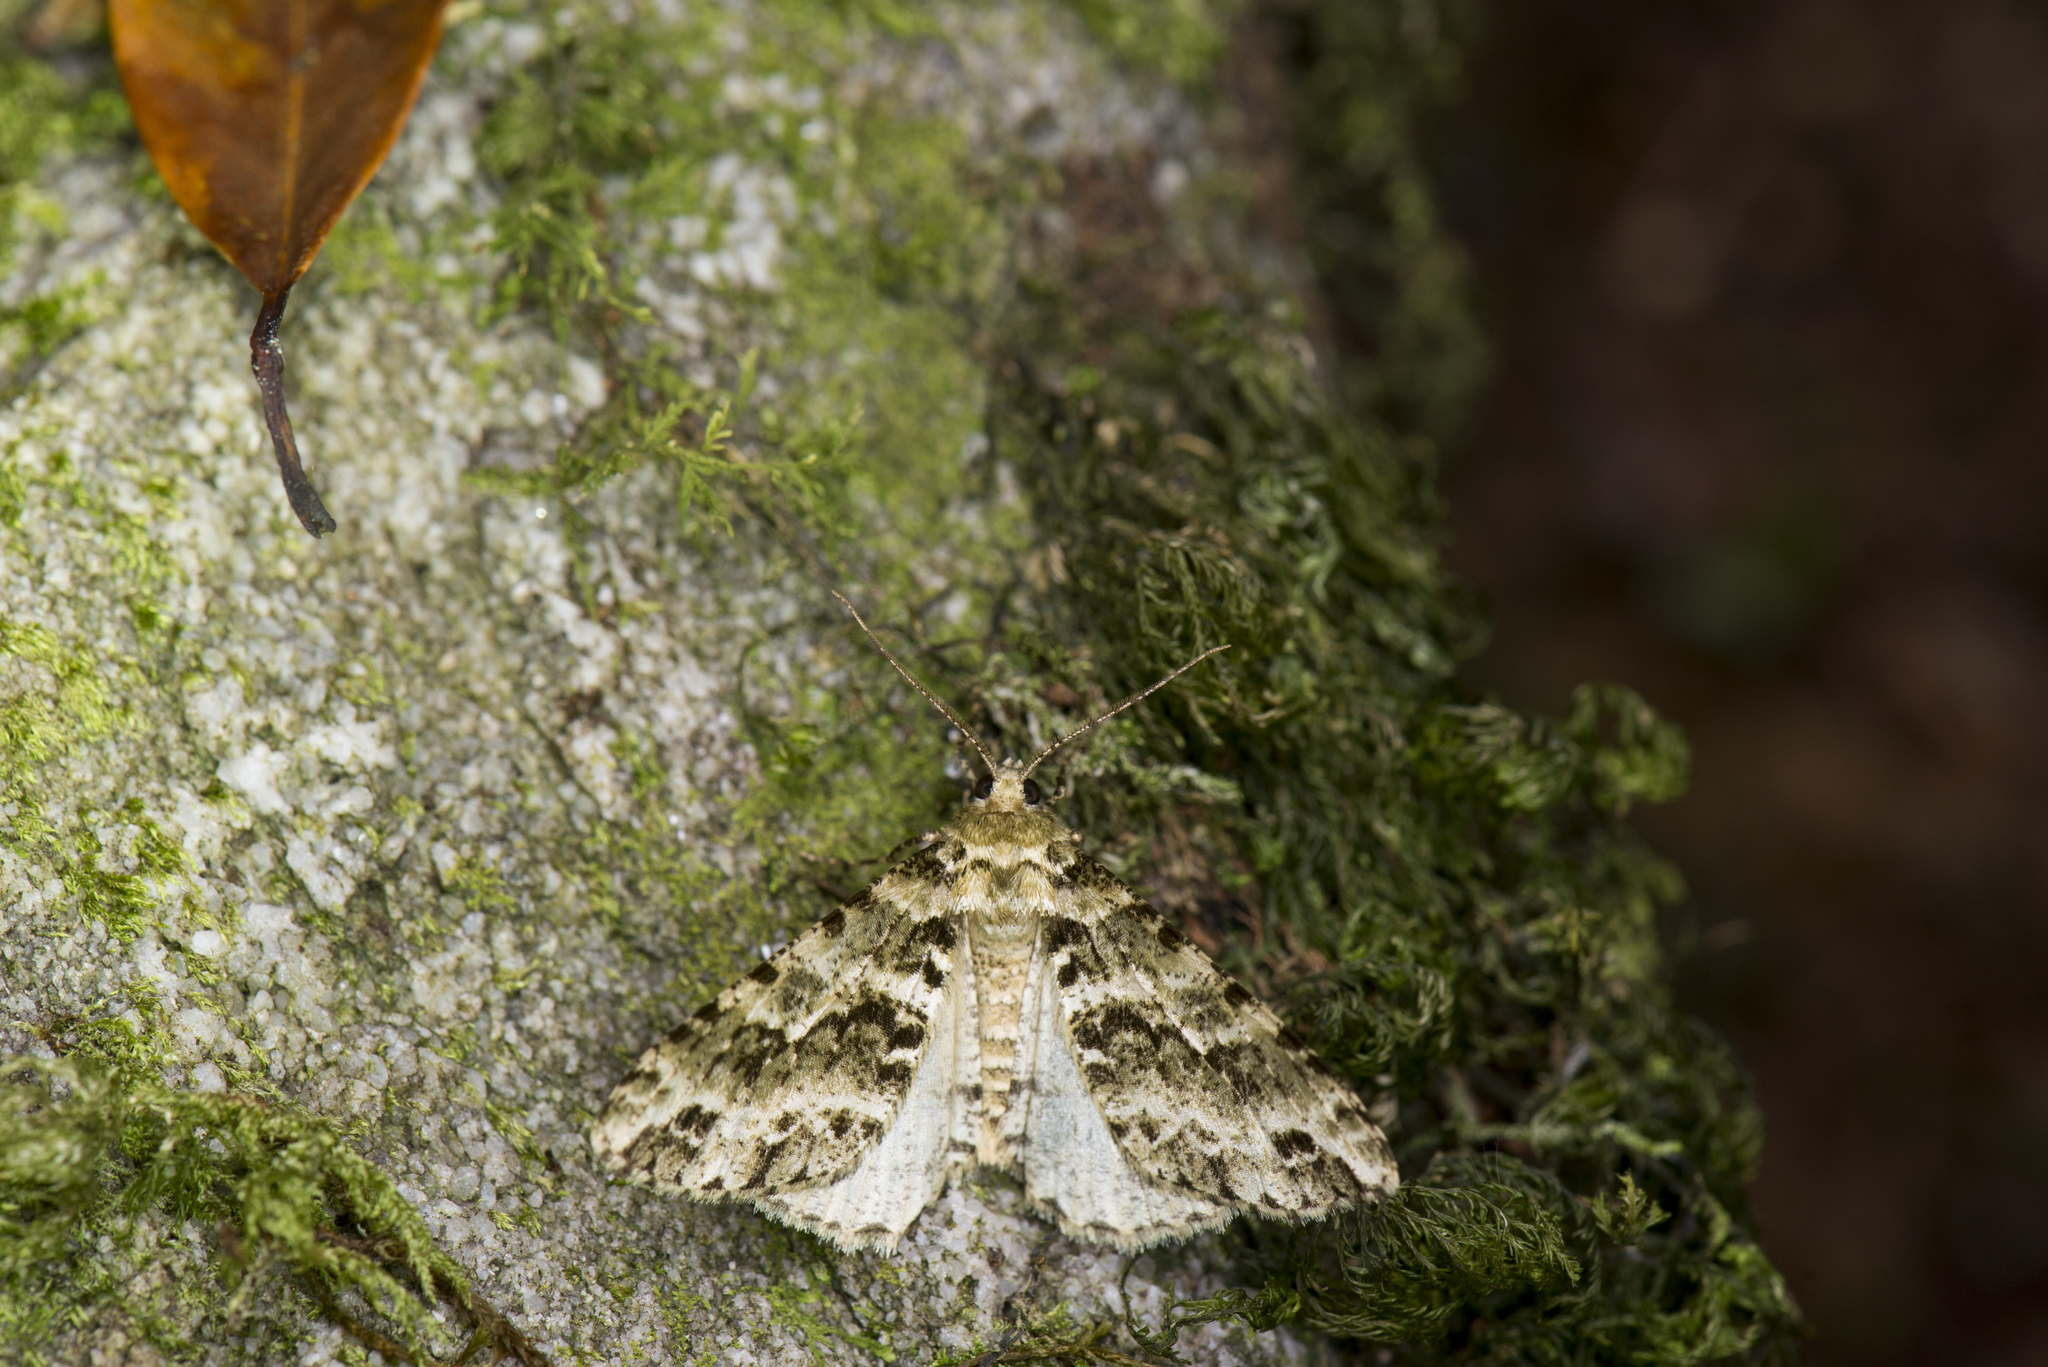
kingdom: Animalia
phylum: Arthropoda
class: Insecta
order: Lepidoptera
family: Geometridae
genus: Arichanna
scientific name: Arichanna marginata
